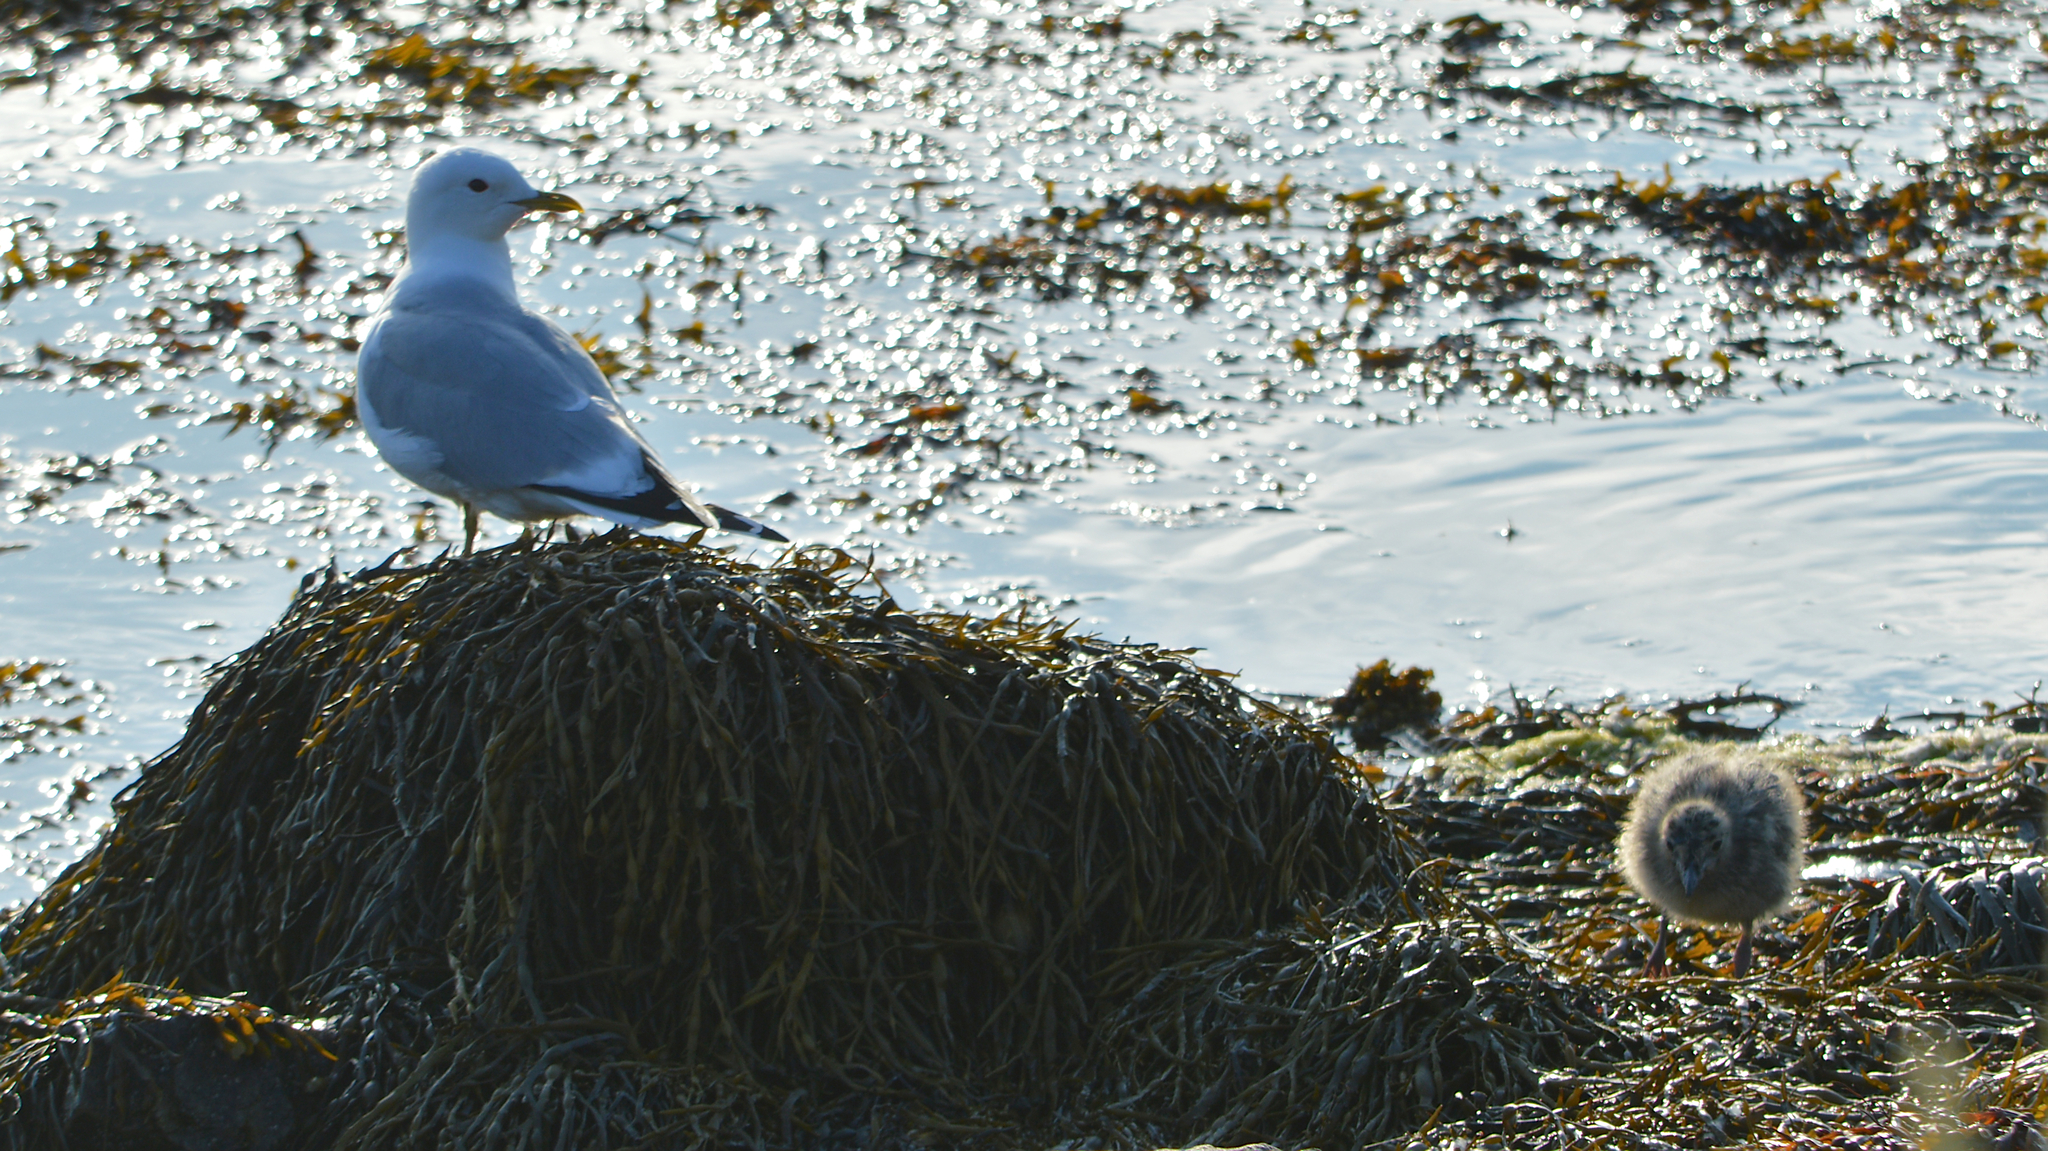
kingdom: Animalia
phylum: Chordata
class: Aves
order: Charadriiformes
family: Laridae
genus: Larus
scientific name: Larus canus
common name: Mew gull
